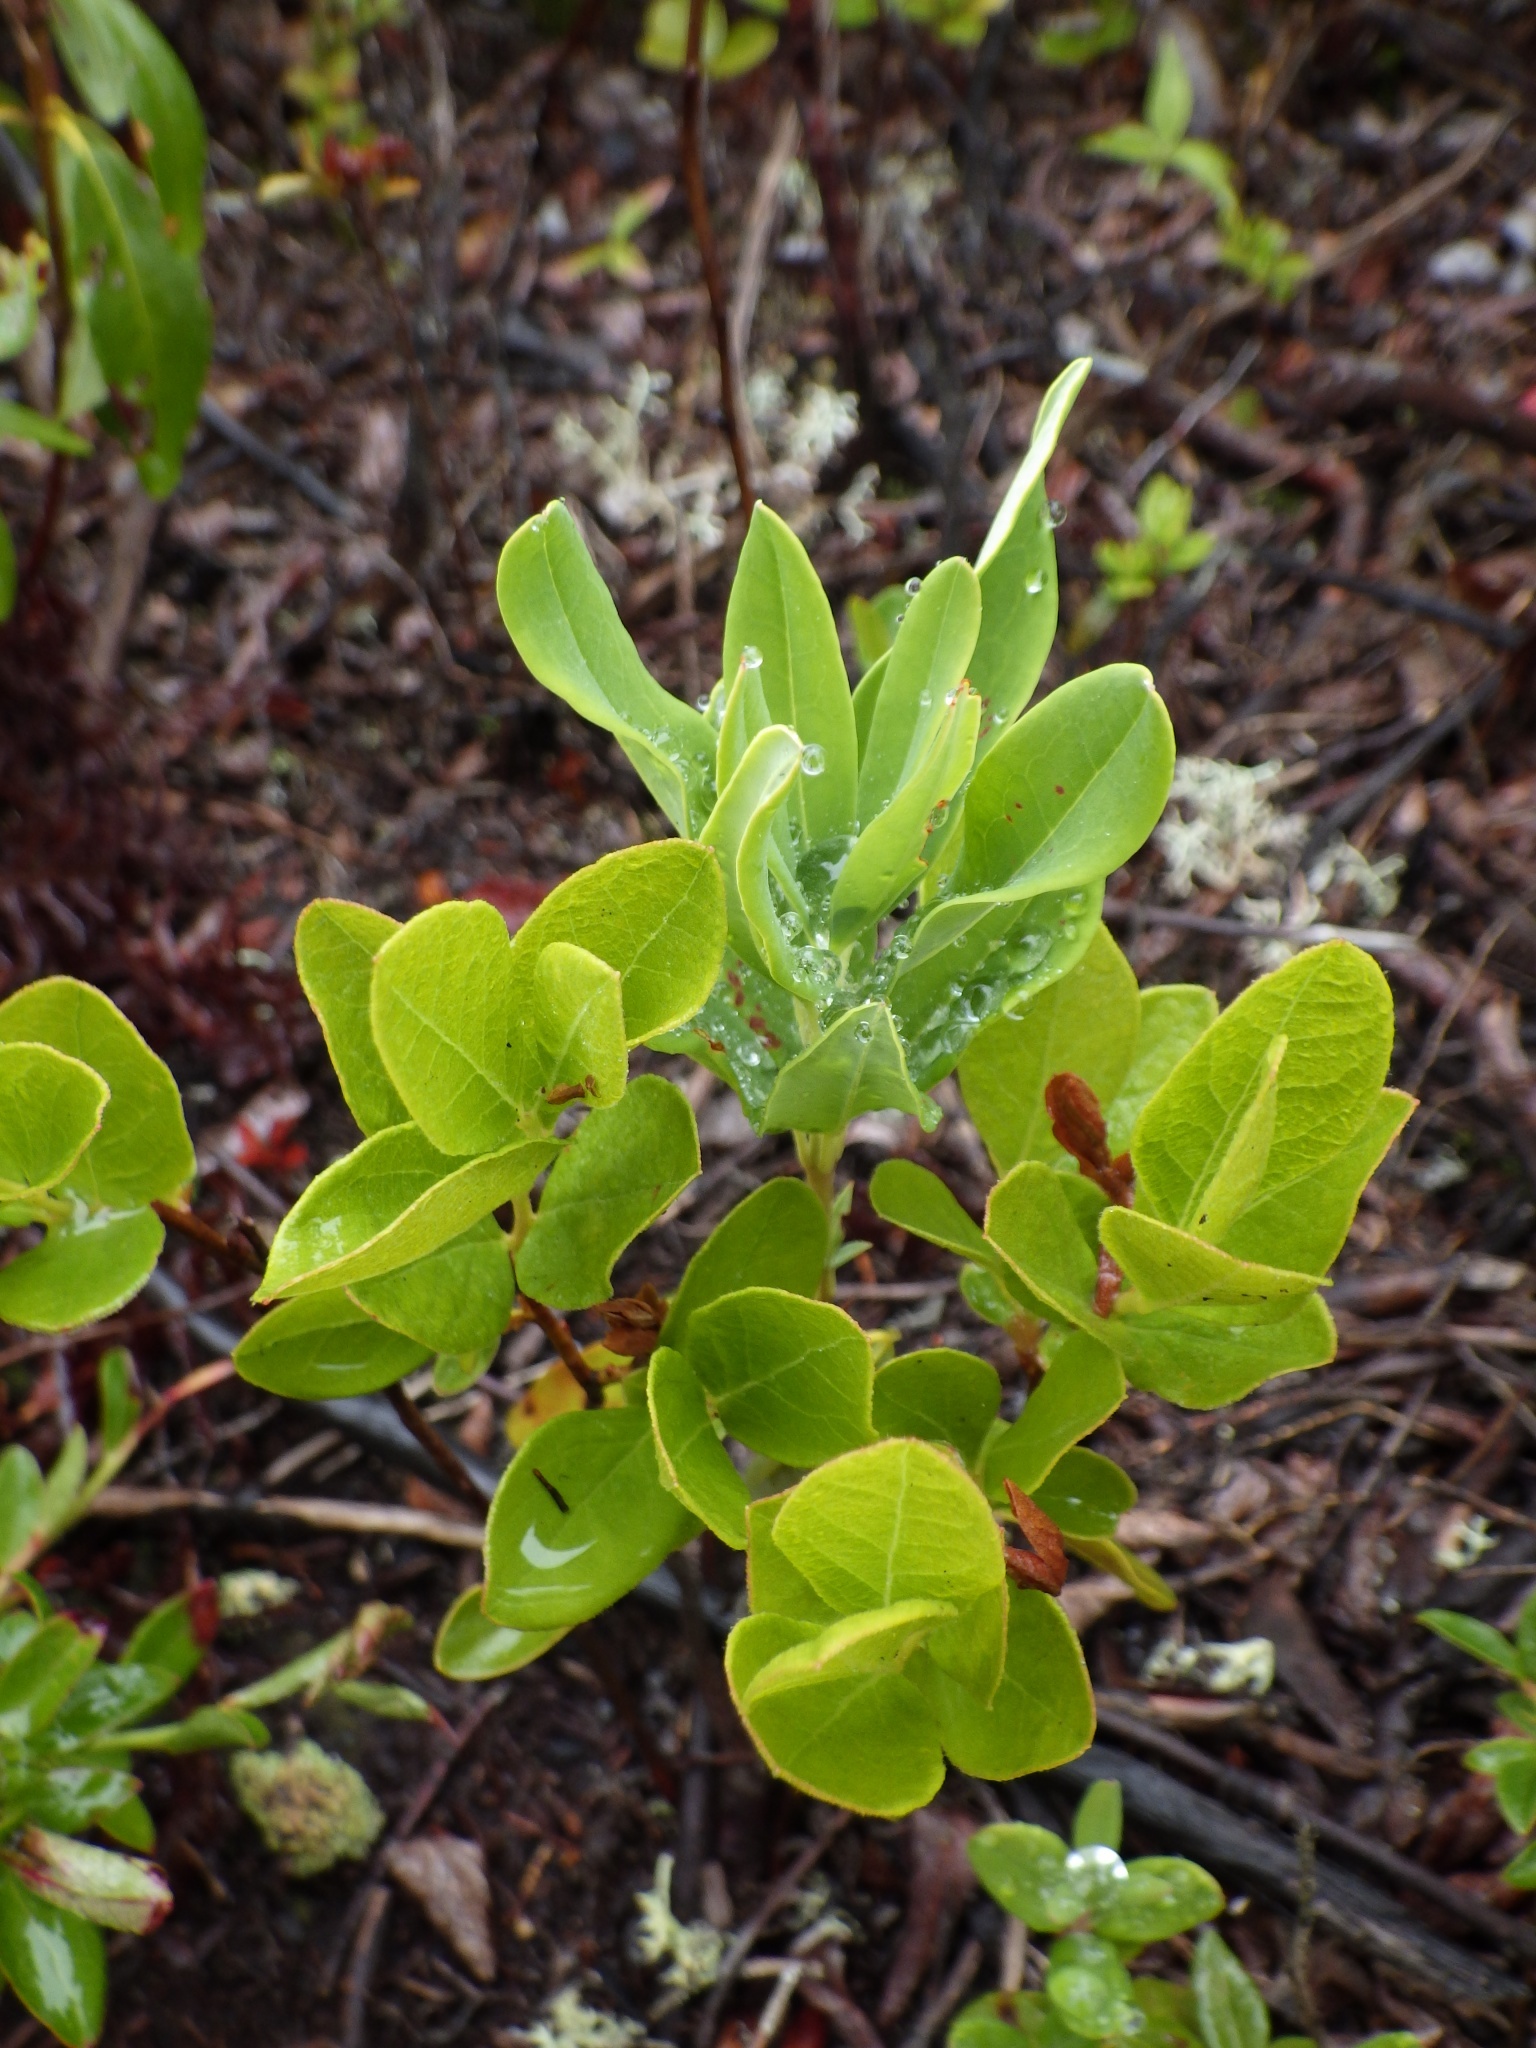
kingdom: Plantae
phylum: Tracheophyta
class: Magnoliopsida
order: Ericales
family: Ericaceae
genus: Gaylussacia
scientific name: Gaylussacia baccata
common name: Black huckleberry
